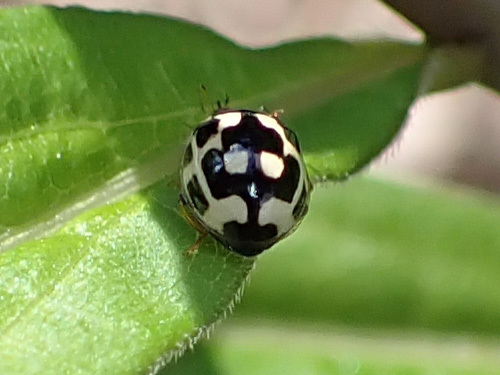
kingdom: Animalia
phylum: Arthropoda
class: Insecta
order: Coleoptera
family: Coccinellidae
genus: Propylaea
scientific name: Propylaea quatuordecimpunctata
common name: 14-spotted ladybird beetle
